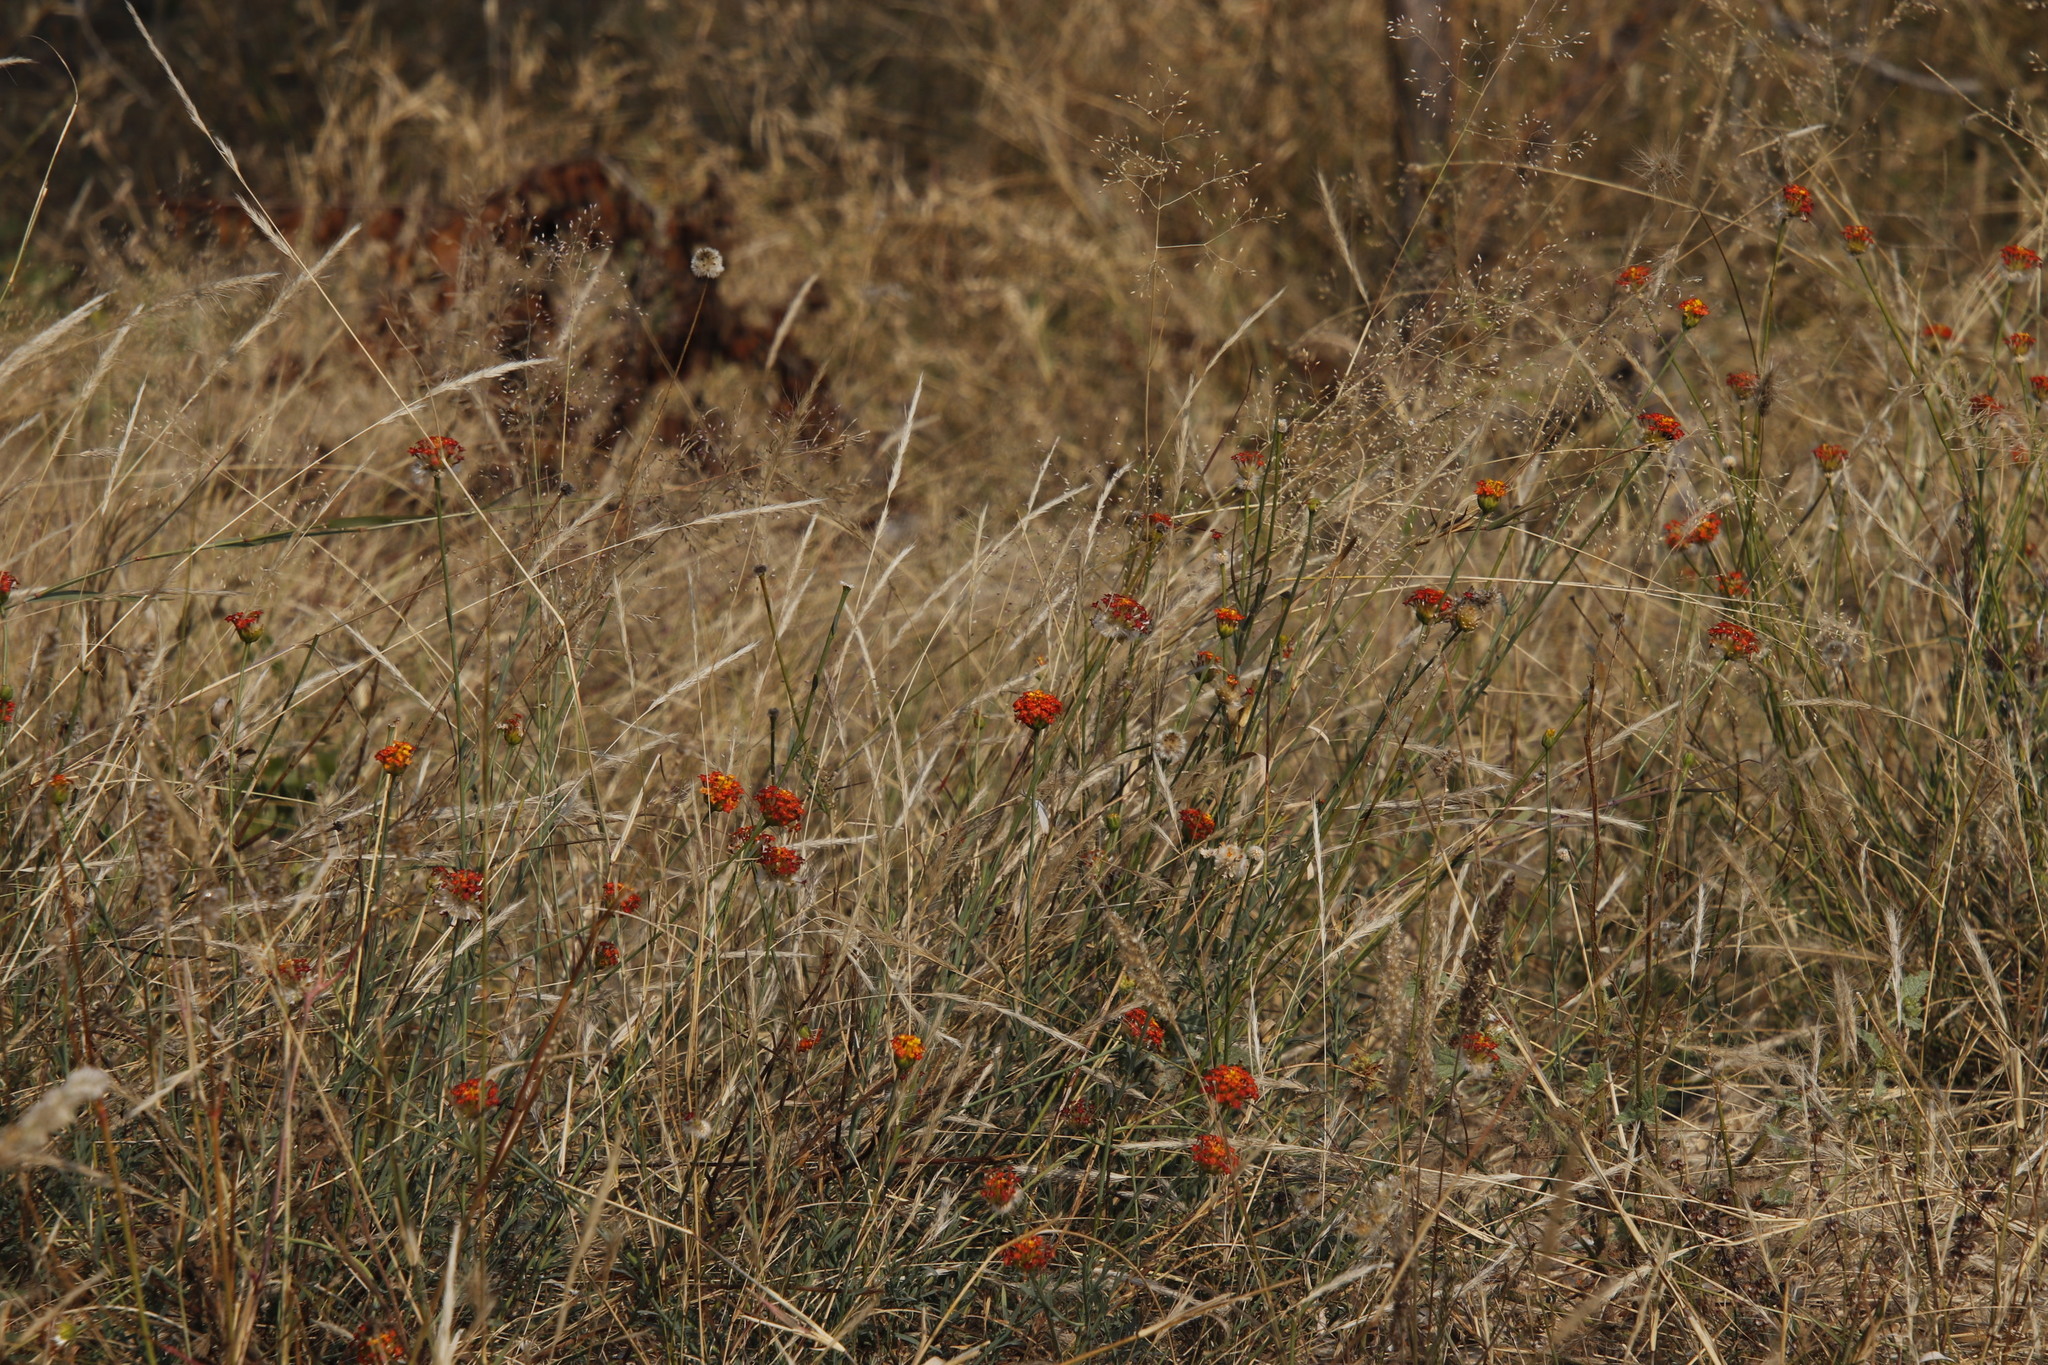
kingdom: Plantae
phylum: Tracheophyta
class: Magnoliopsida
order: Malvales
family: Thymelaeaceae
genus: Gnidia
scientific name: Gnidia rubescens
